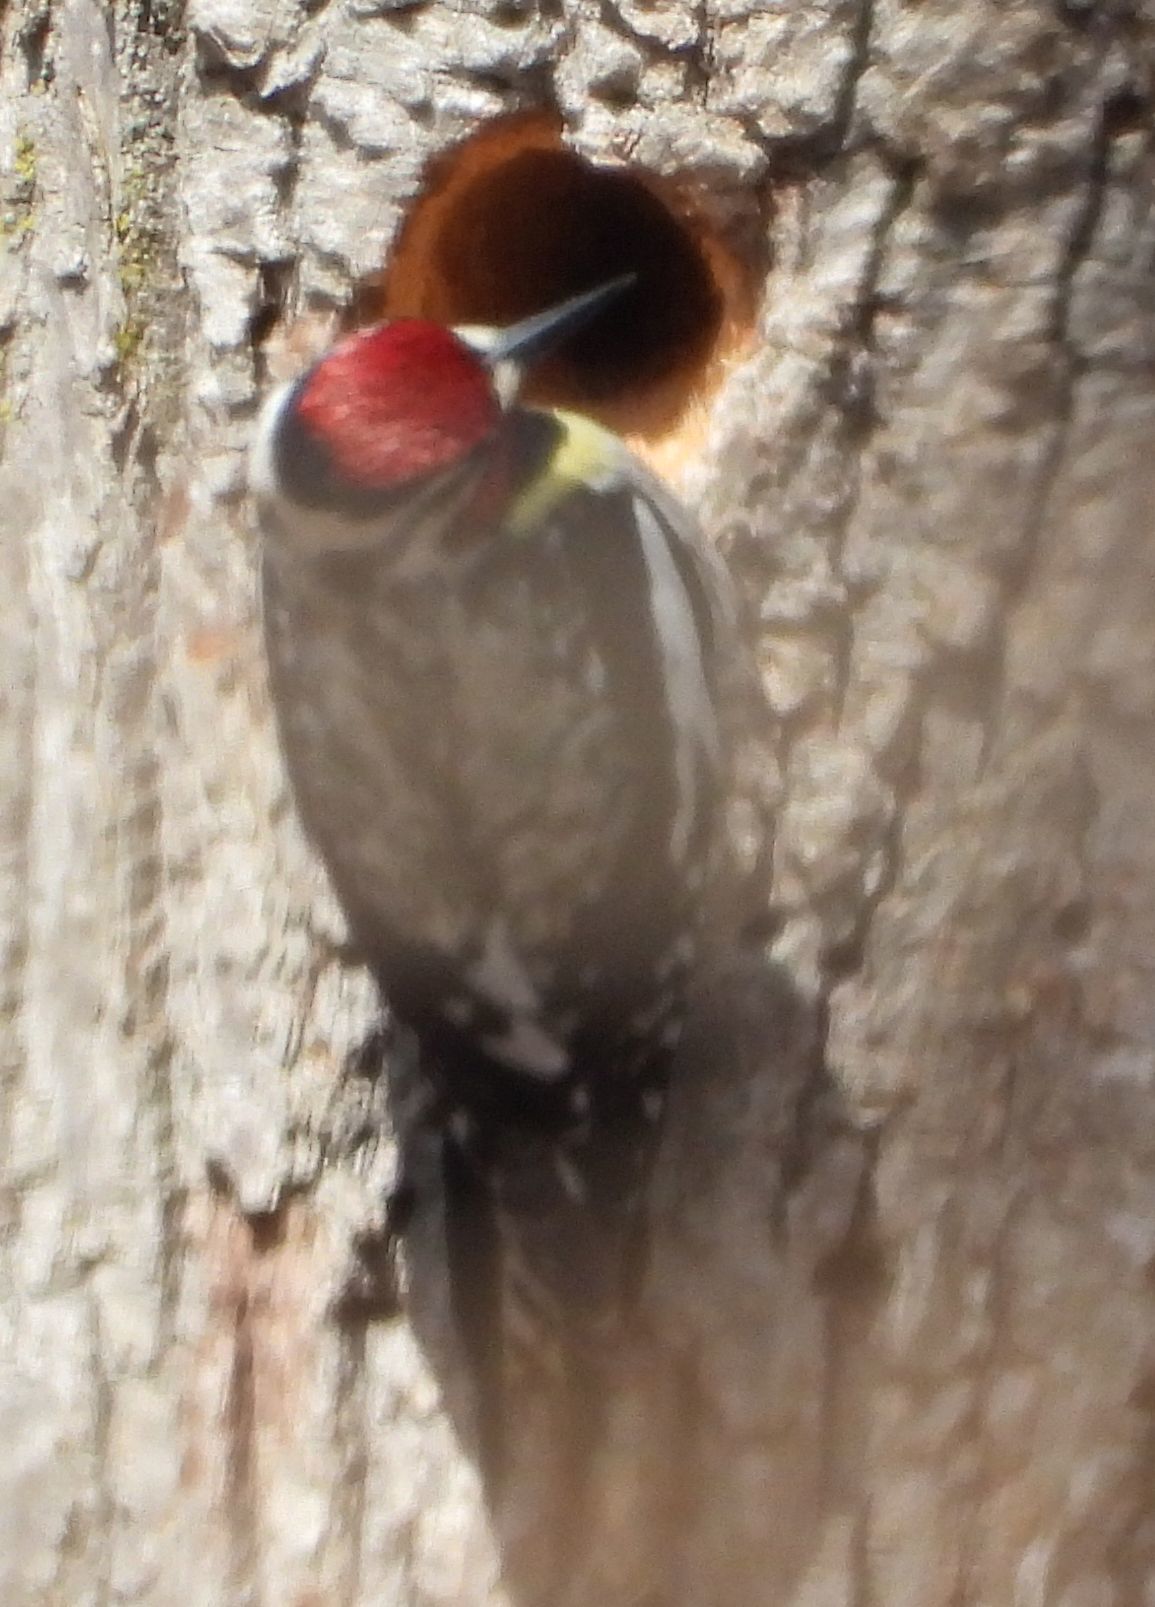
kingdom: Animalia
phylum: Chordata
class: Aves
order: Piciformes
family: Picidae
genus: Sphyrapicus
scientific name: Sphyrapicus varius
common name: Yellow-bellied sapsucker
